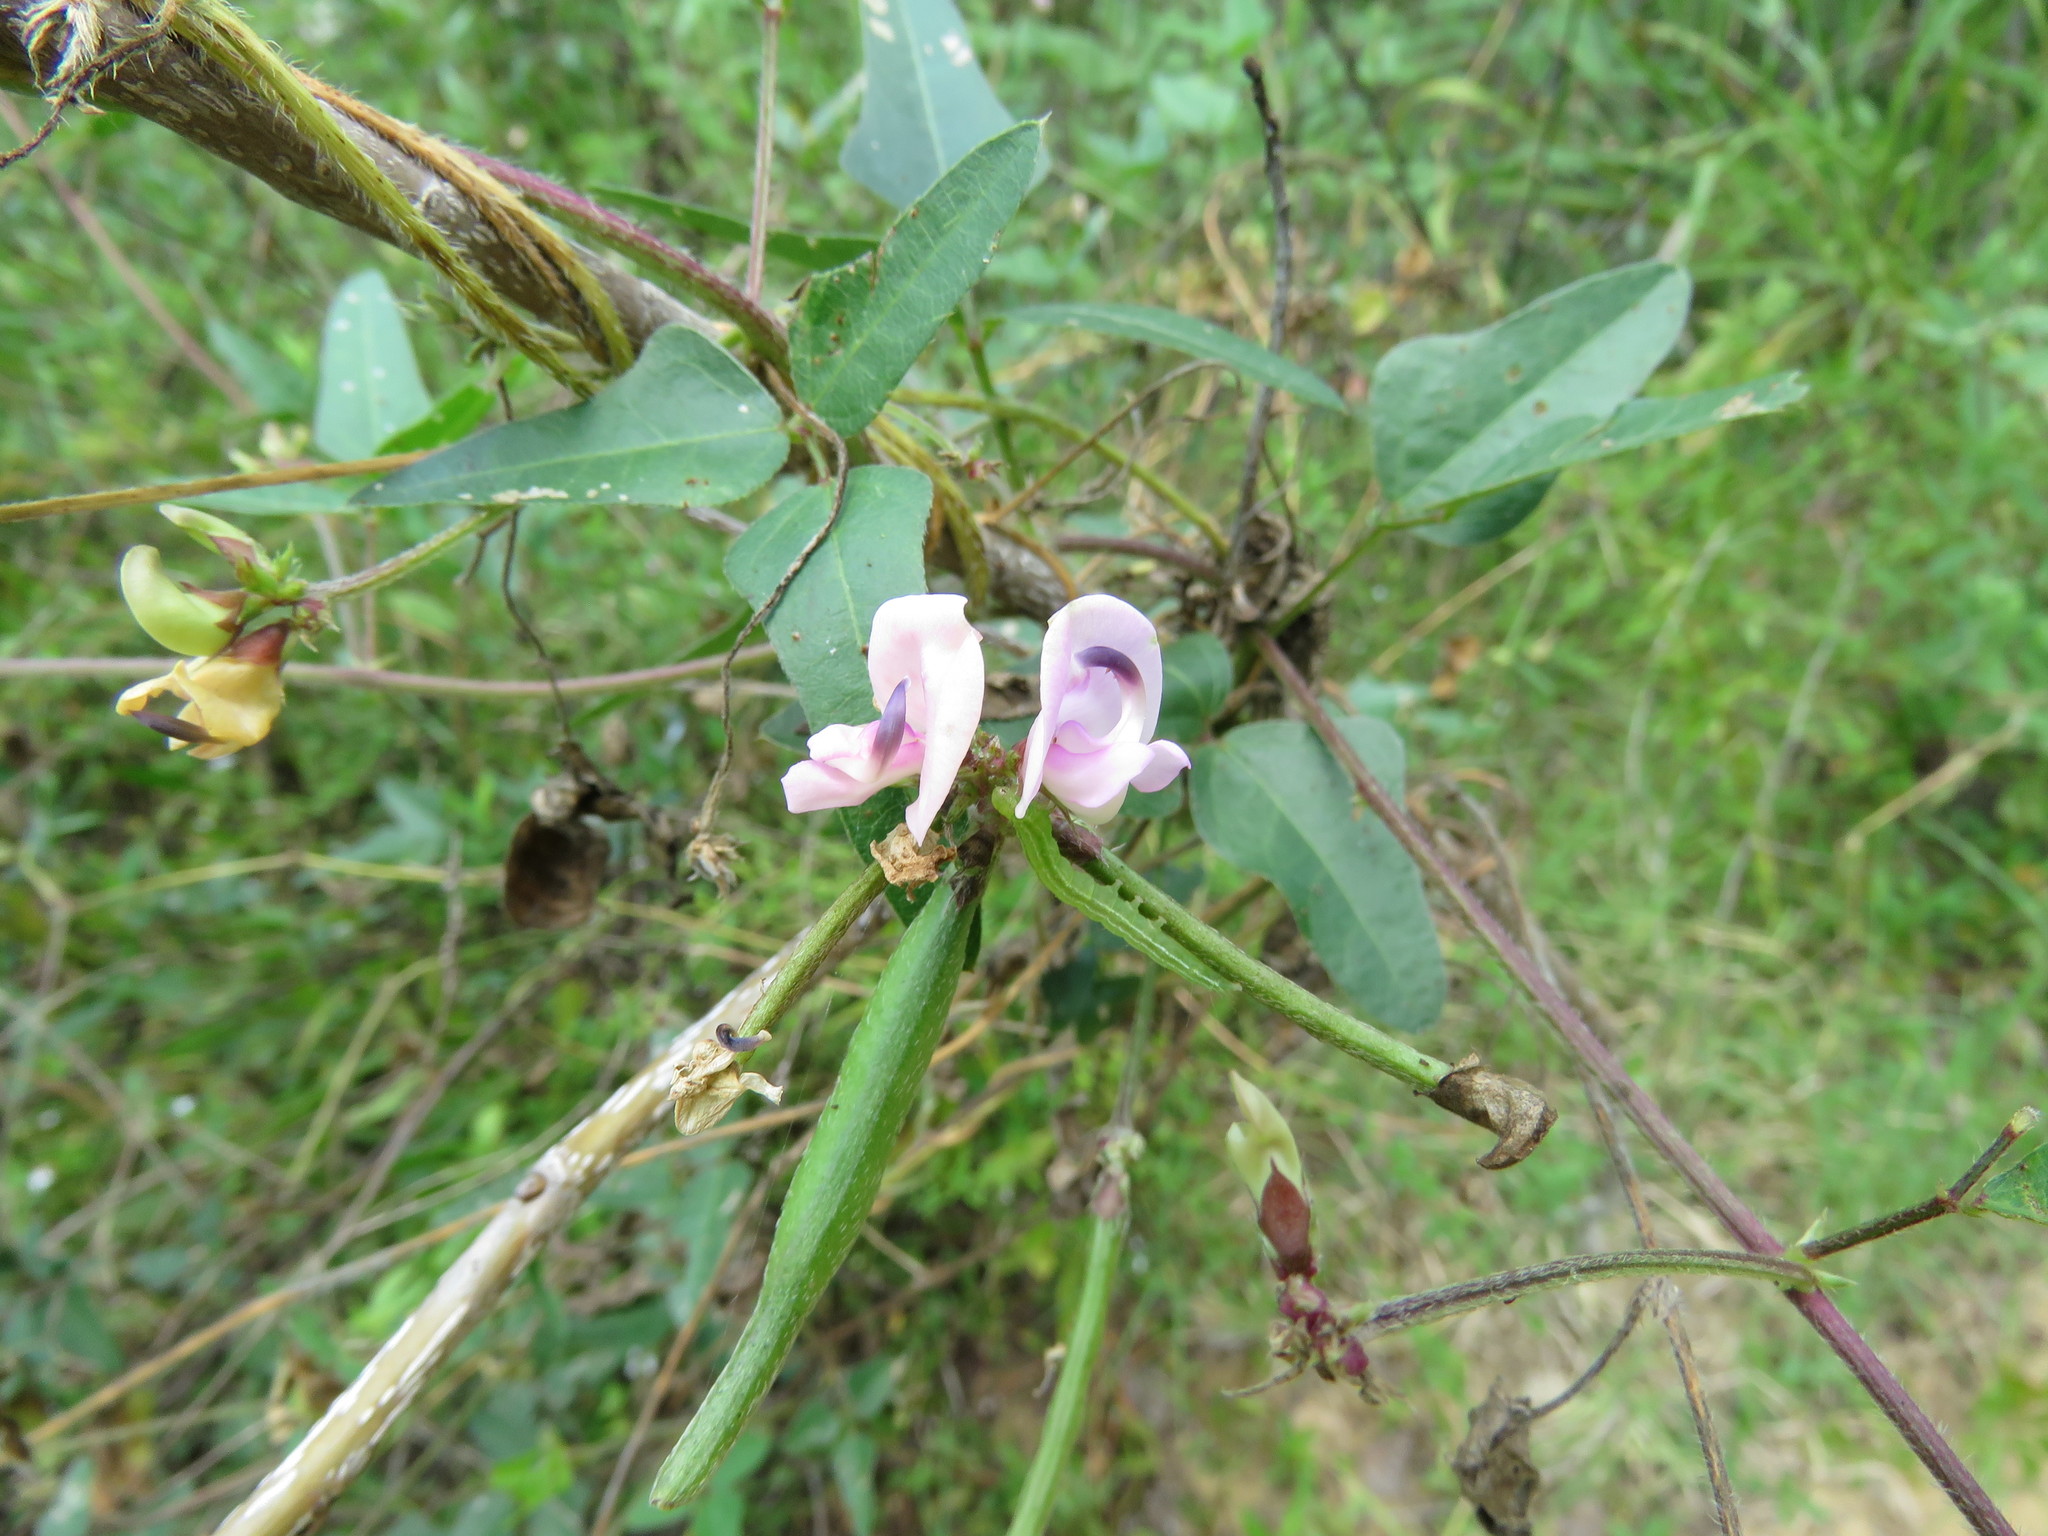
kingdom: Plantae
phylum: Tracheophyta
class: Magnoliopsida
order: Fabales
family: Fabaceae
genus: Strophostyles
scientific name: Strophostyles helvola
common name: Trailing wild bean
